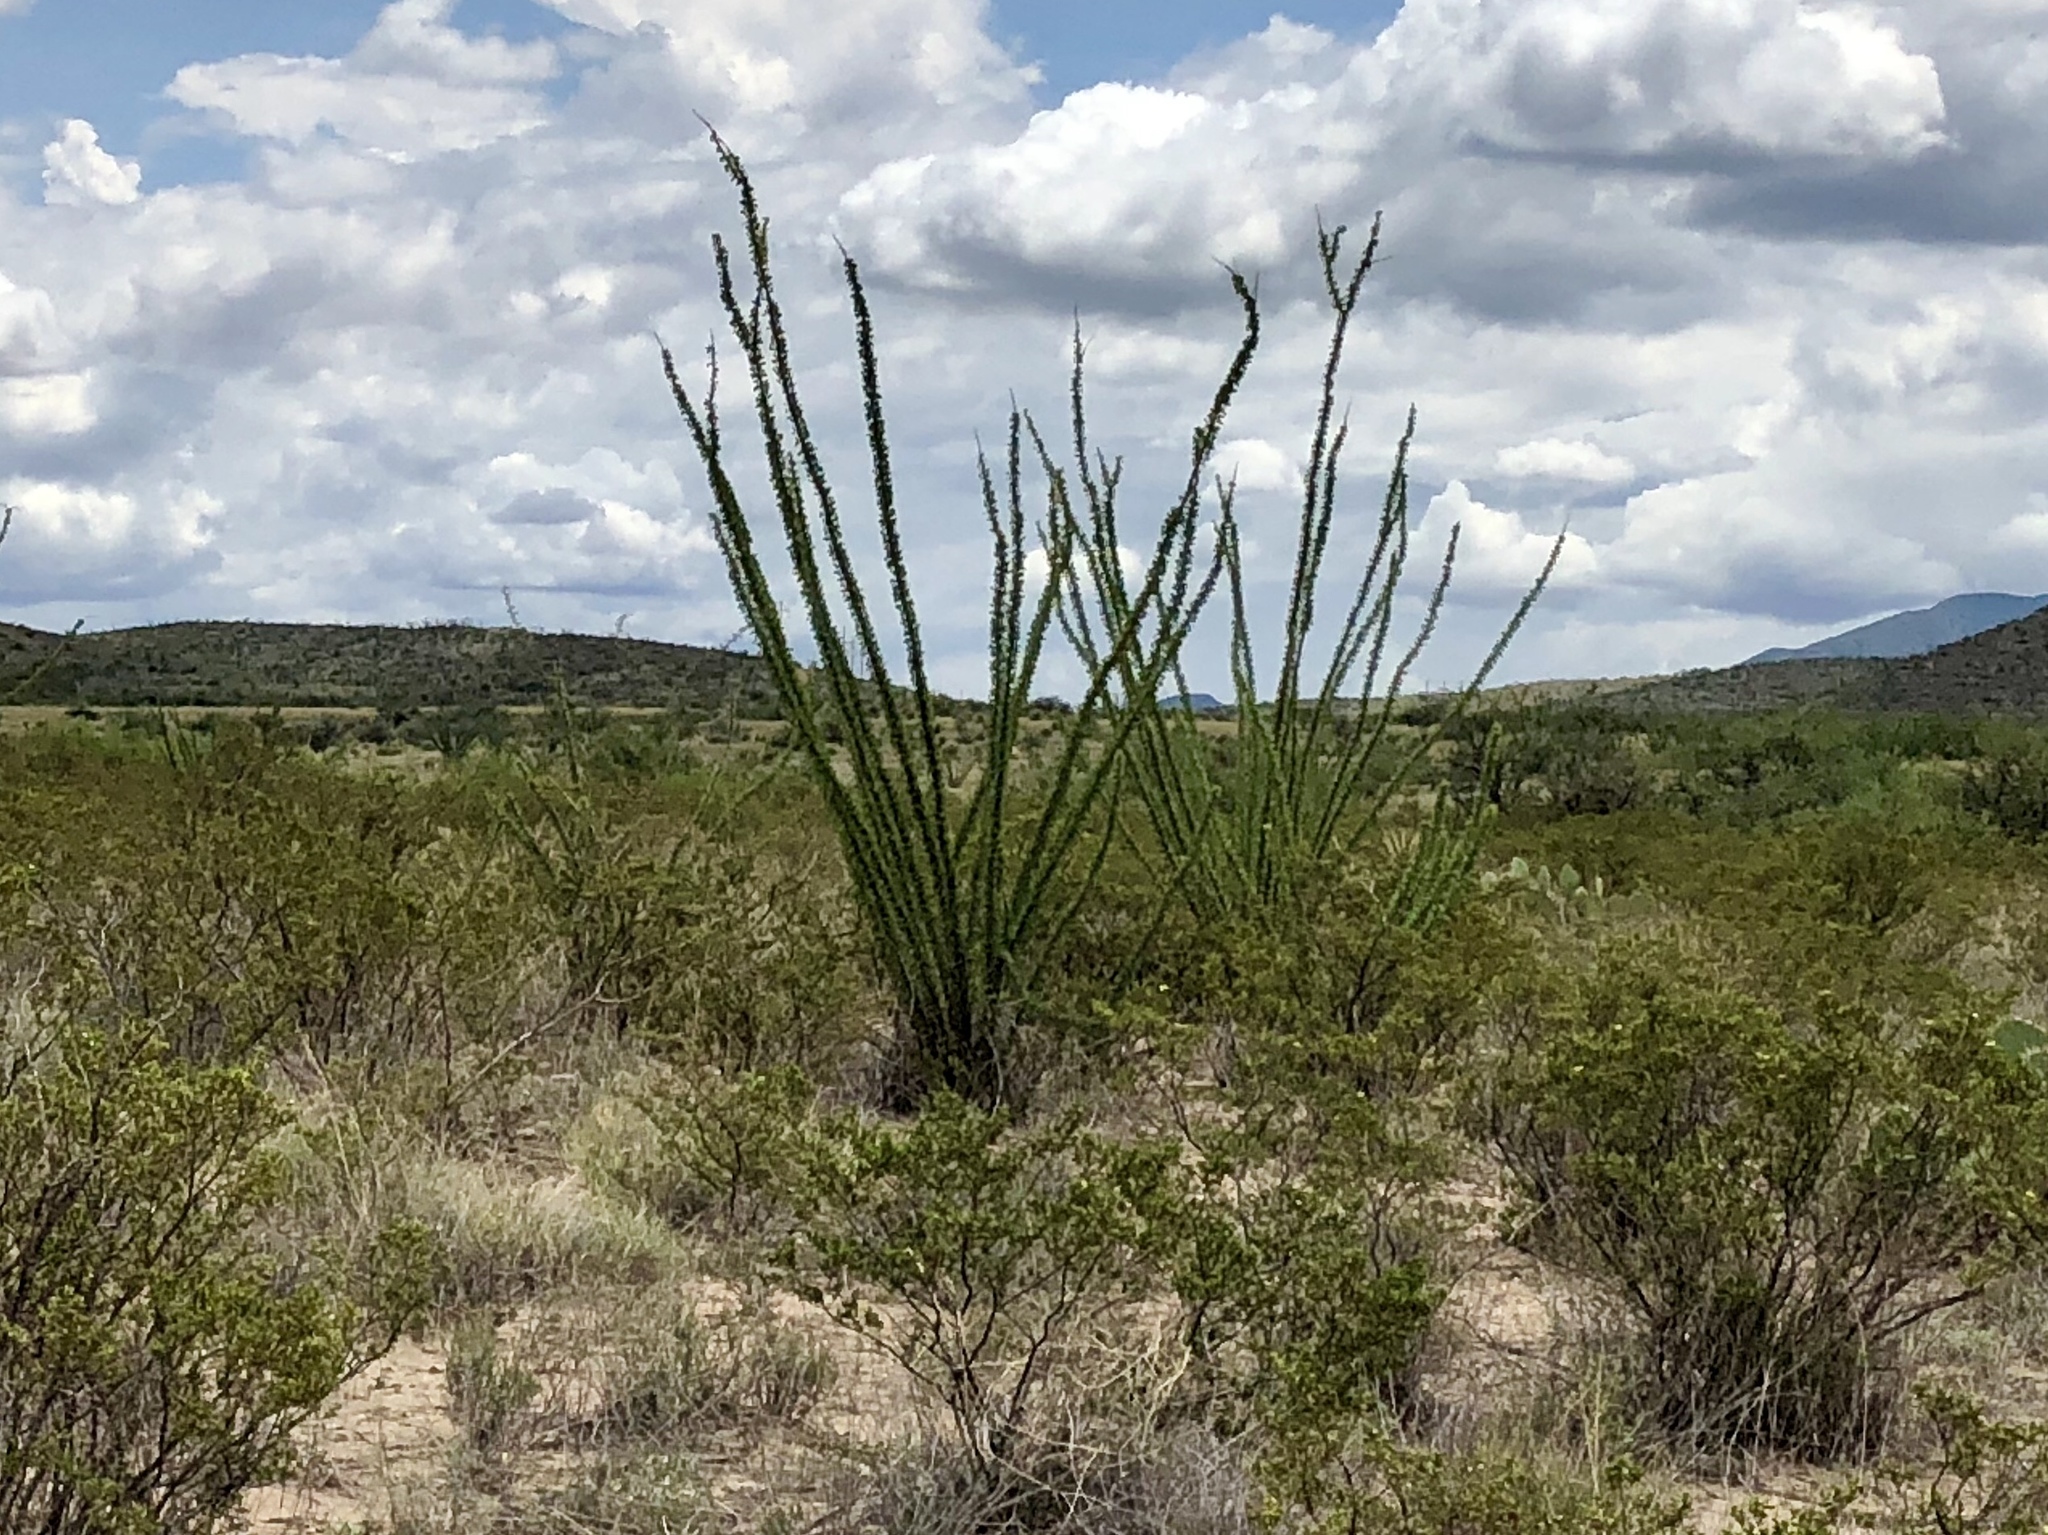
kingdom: Plantae
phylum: Tracheophyta
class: Magnoliopsida
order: Ericales
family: Fouquieriaceae
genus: Fouquieria
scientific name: Fouquieria splendens
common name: Vine-cactus
